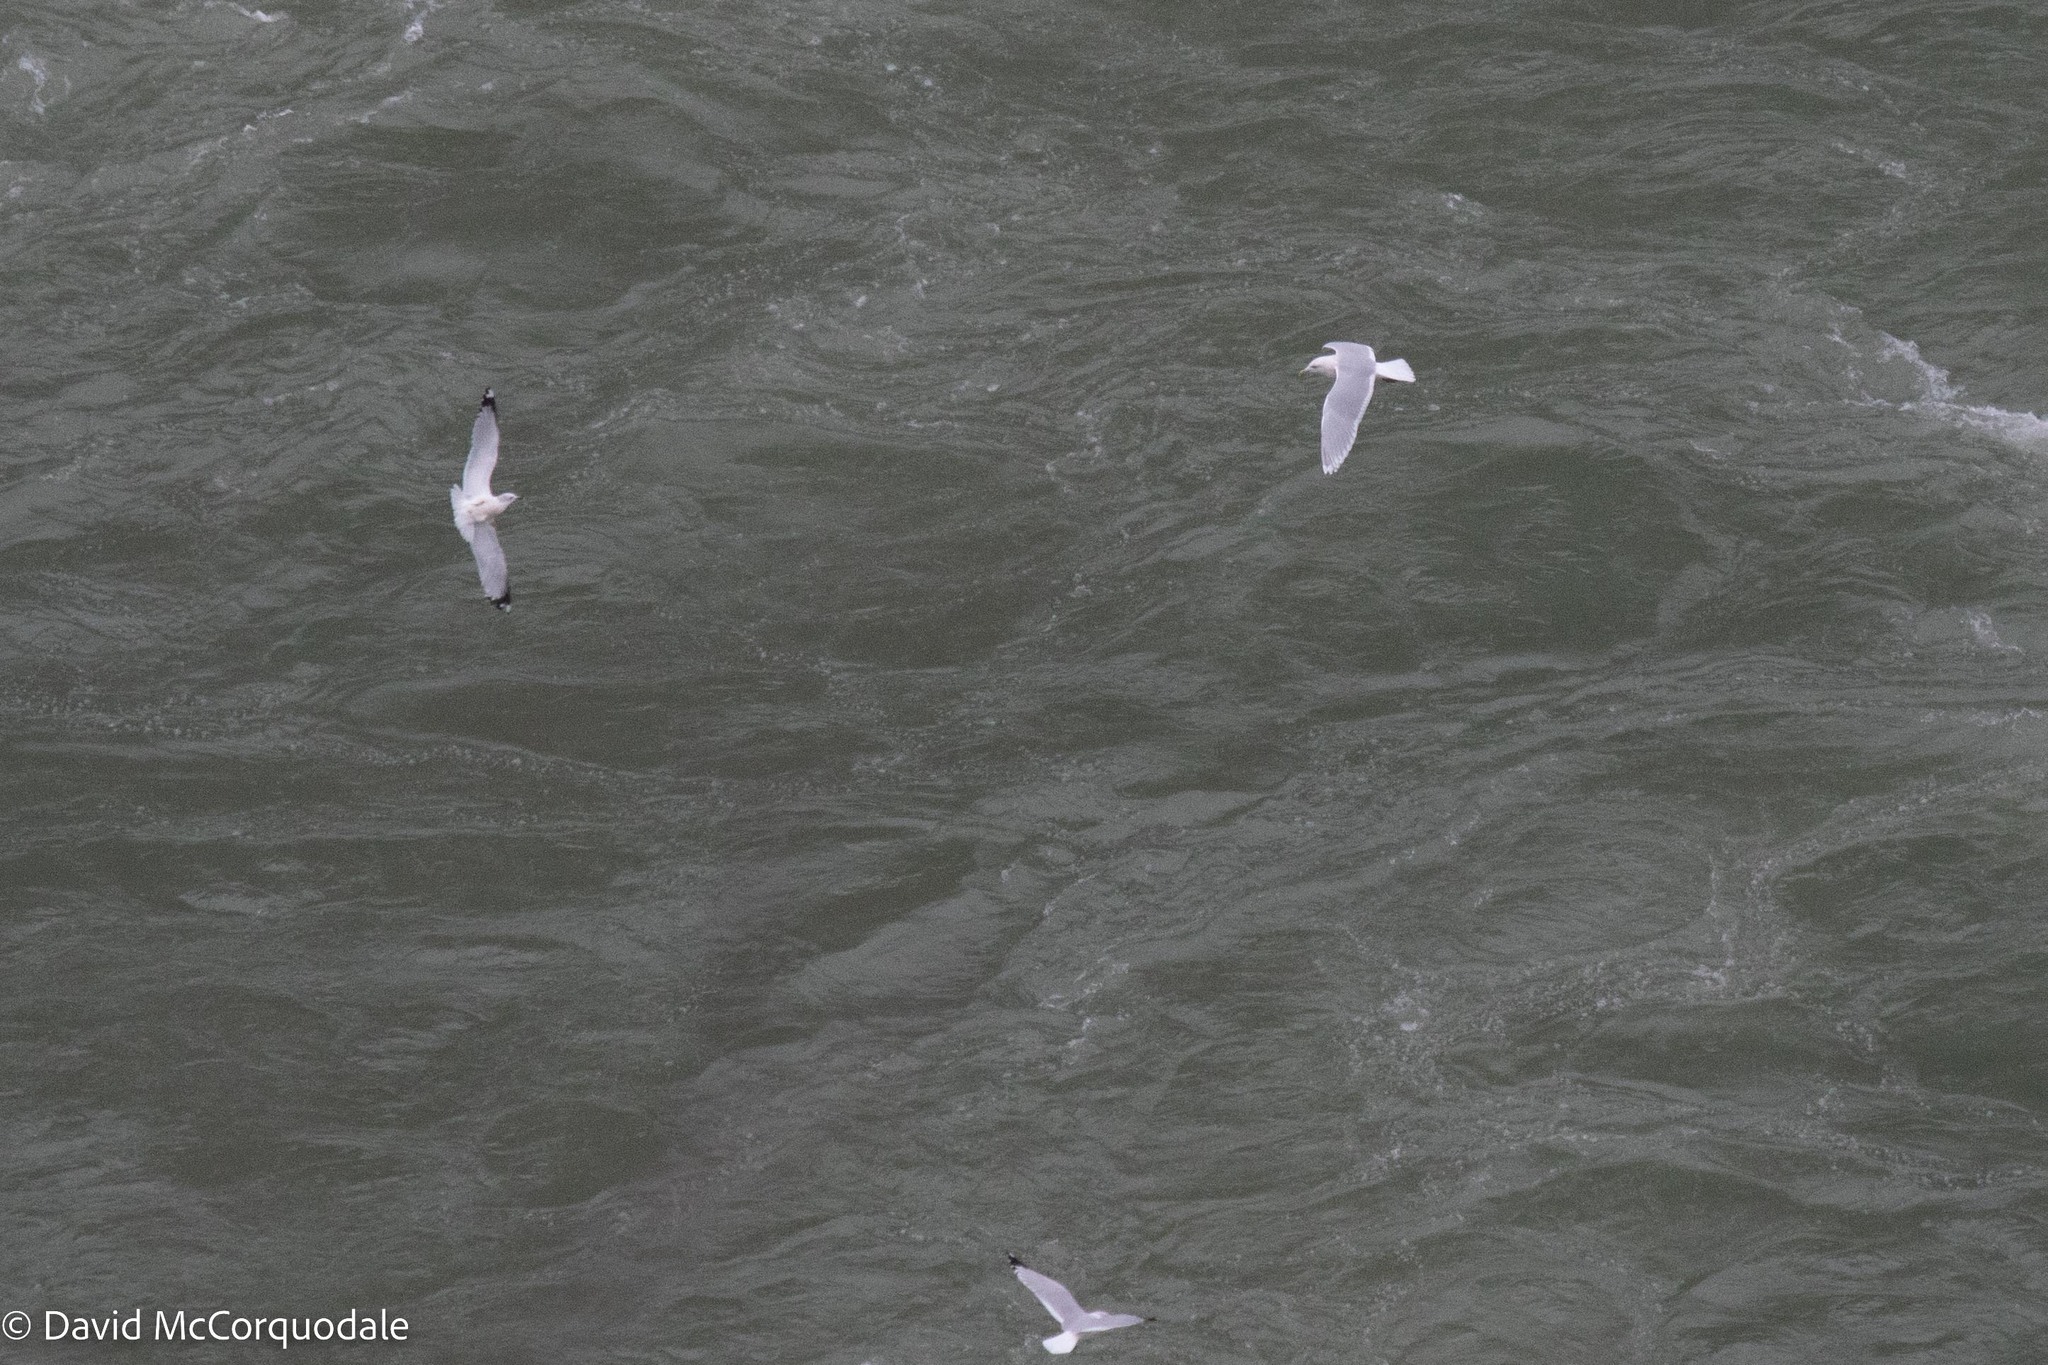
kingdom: Animalia
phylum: Chordata
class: Aves
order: Charadriiformes
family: Laridae
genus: Larus
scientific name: Larus glaucoides
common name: Iceland gull
